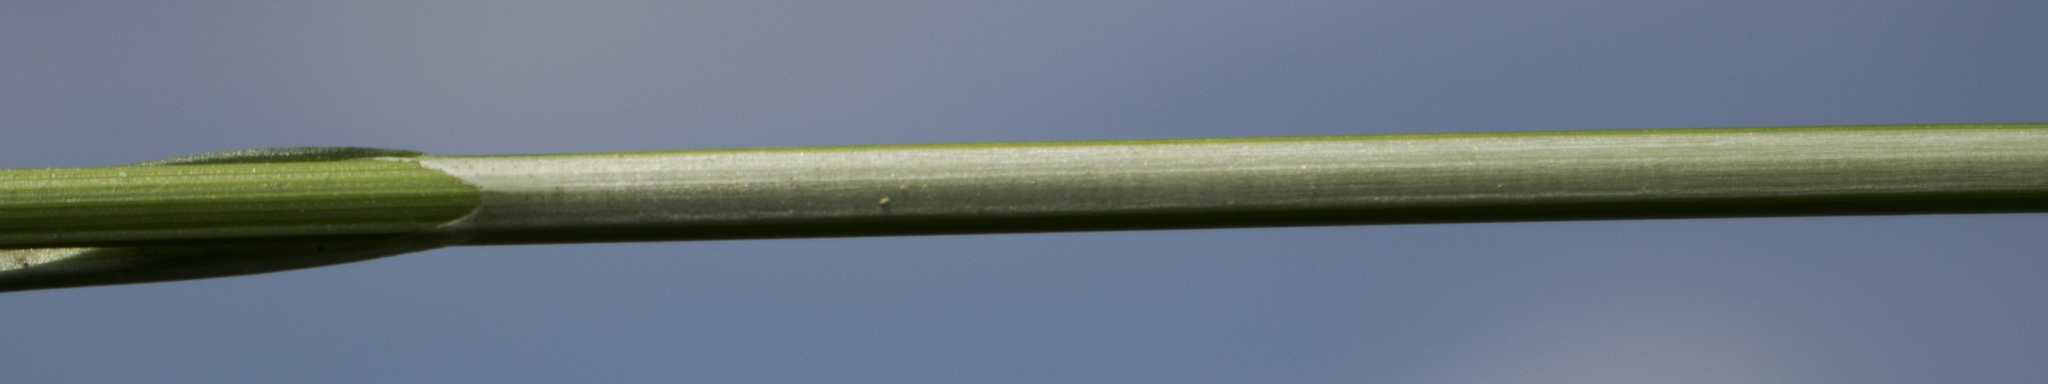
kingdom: Plantae
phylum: Tracheophyta
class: Liliopsida
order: Poales
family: Cyperaceae
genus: Carex
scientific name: Carex spicata
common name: Spiked sedge
